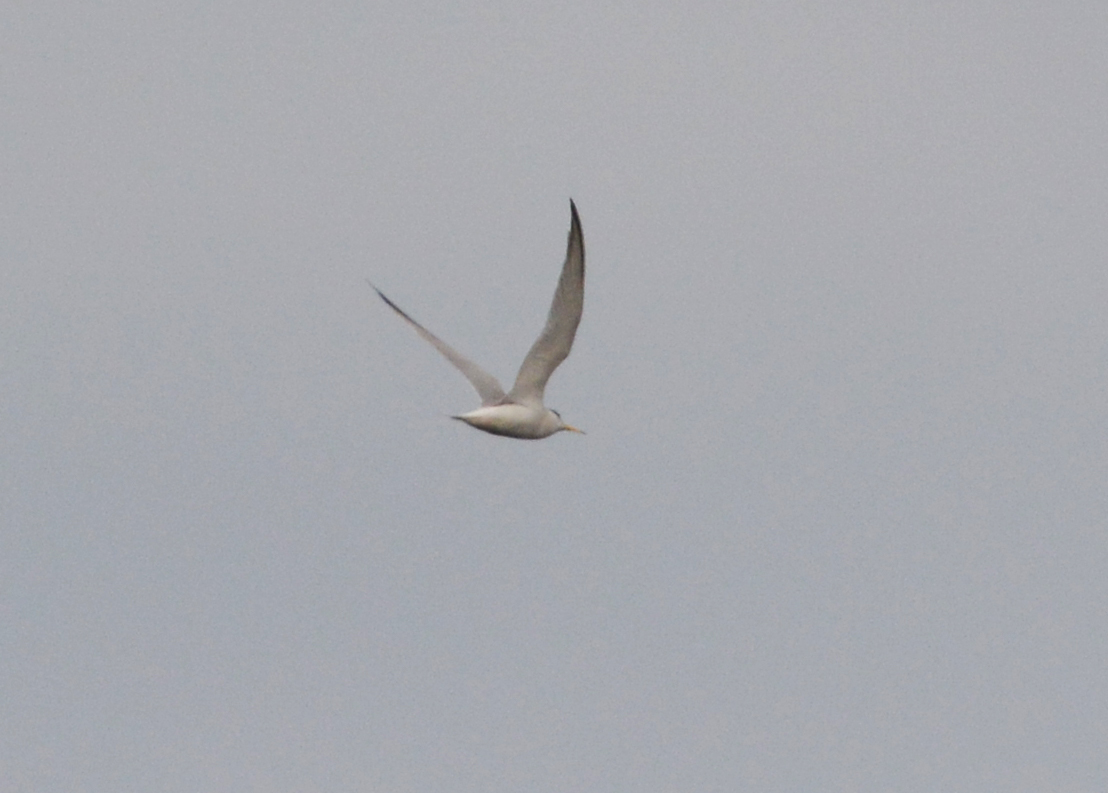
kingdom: Animalia
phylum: Chordata
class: Aves
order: Charadriiformes
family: Laridae
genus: Sternula
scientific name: Sternula albifrons
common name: Little tern
